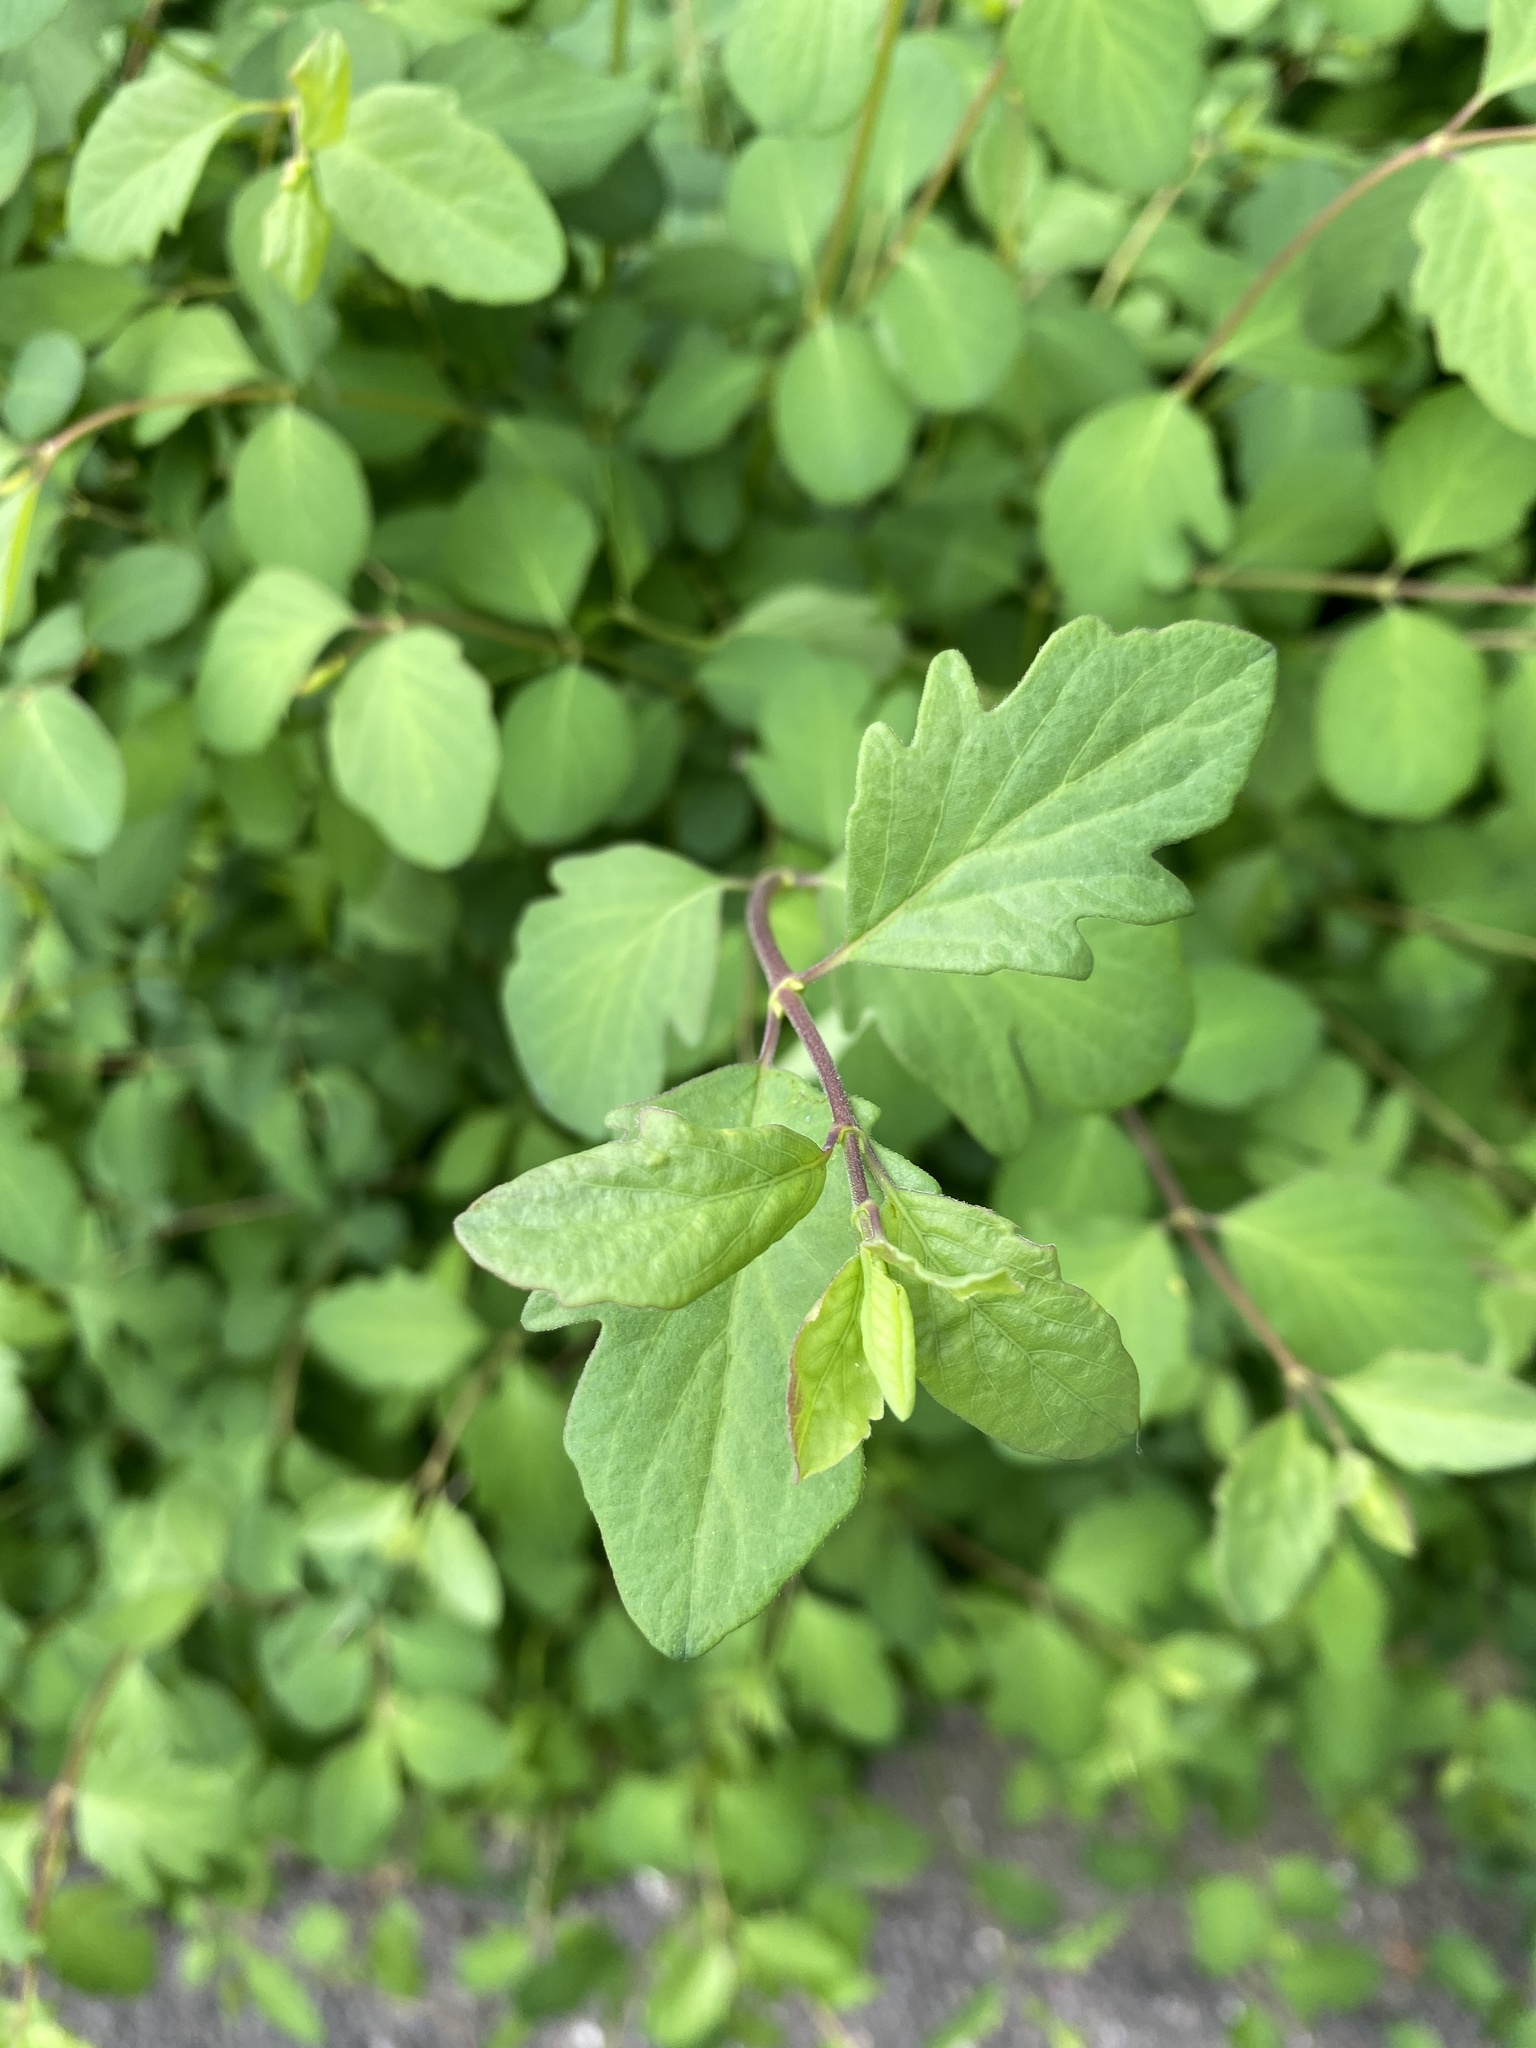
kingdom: Plantae
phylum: Tracheophyta
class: Magnoliopsida
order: Dipsacales
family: Caprifoliaceae
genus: Symphoricarpos
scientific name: Symphoricarpos albus
